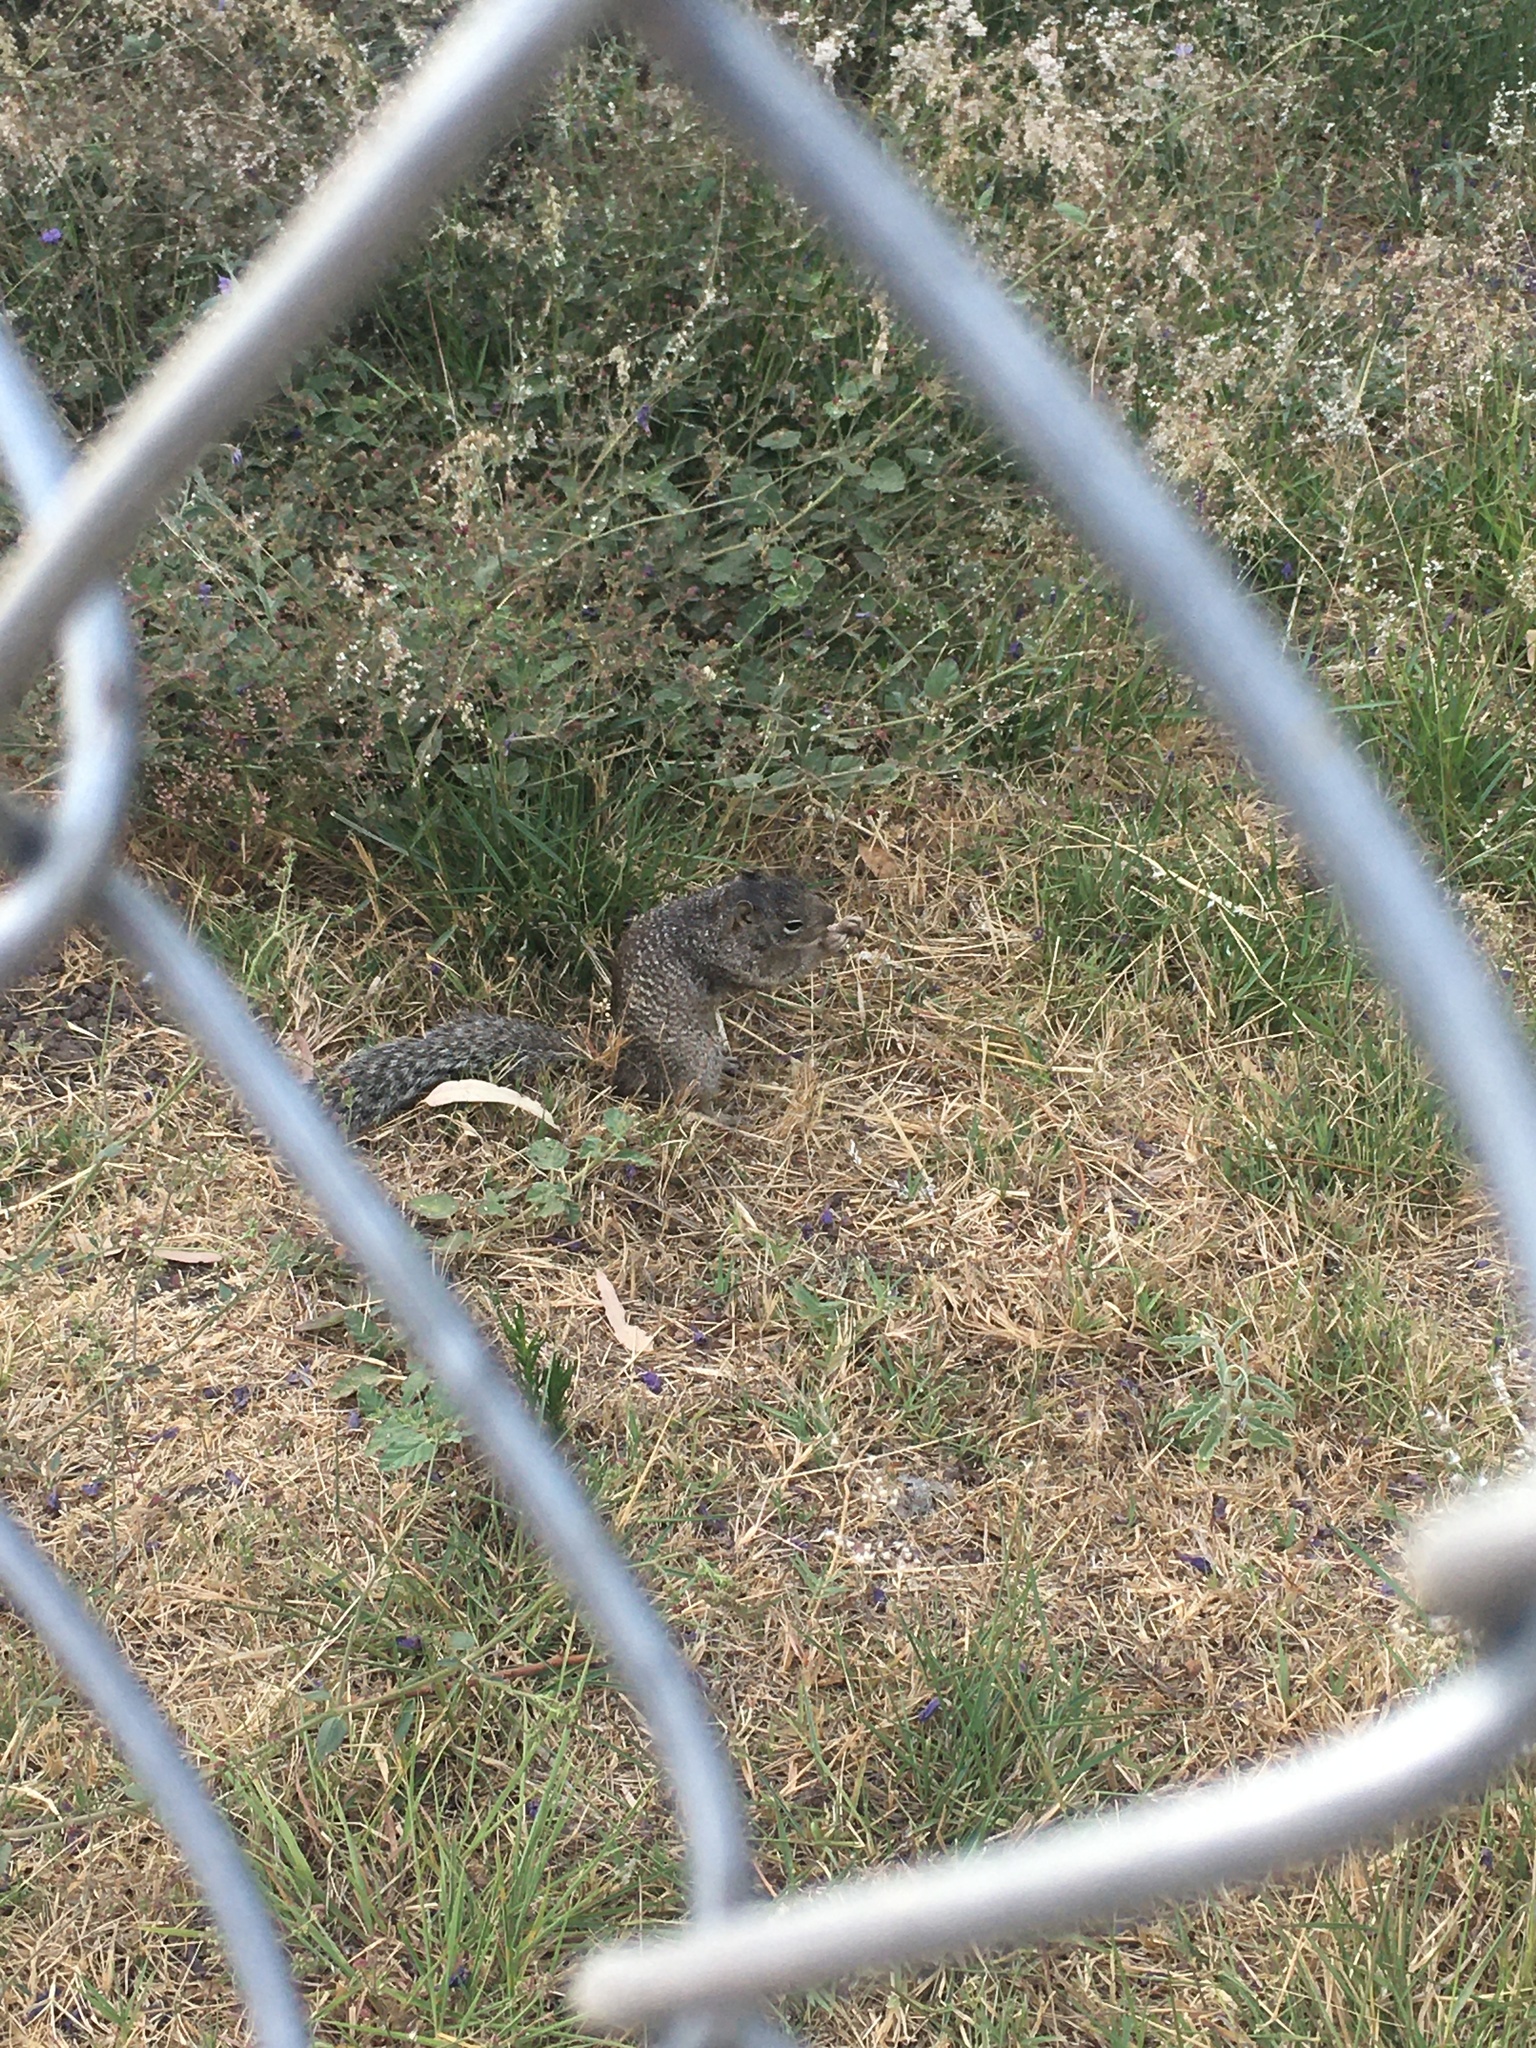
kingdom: Animalia
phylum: Chordata
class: Mammalia
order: Rodentia
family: Sciuridae
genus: Otospermophilus
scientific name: Otospermophilus variegatus
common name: Rock squirrel
